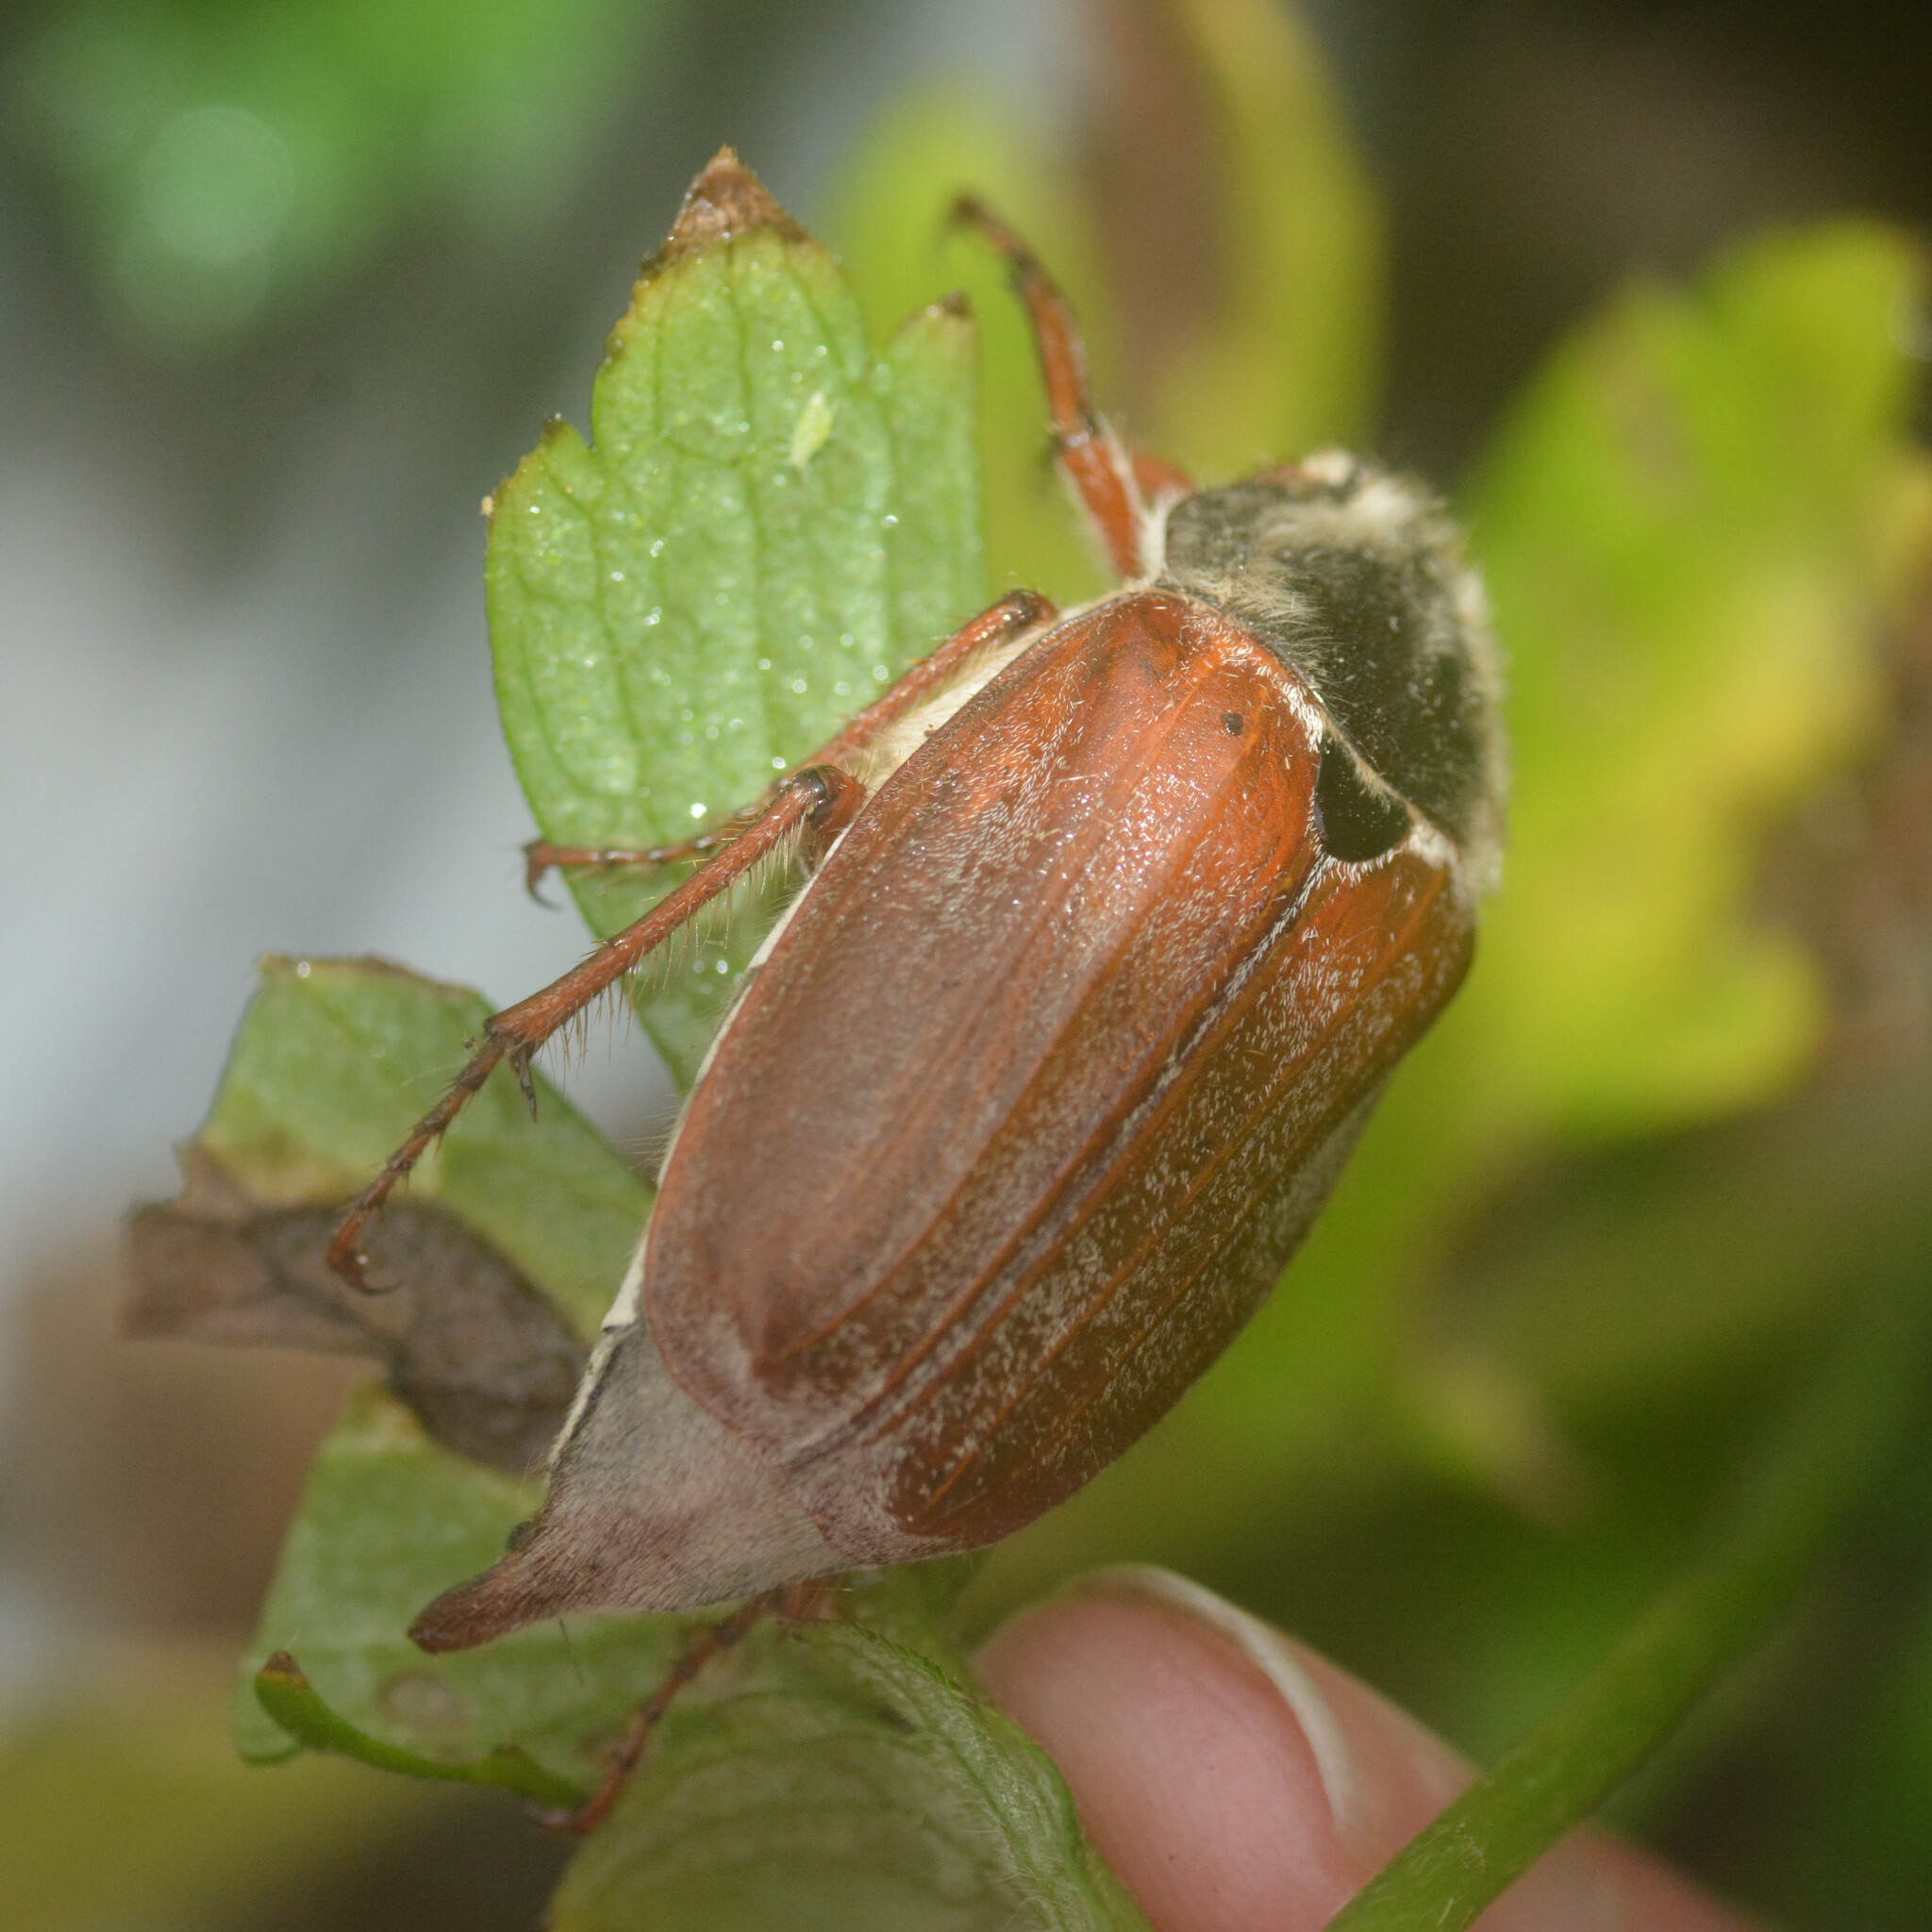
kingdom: Animalia
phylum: Arthropoda
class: Insecta
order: Coleoptera
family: Scarabaeidae
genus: Melolontha
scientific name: Melolontha melolontha
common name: Cockchafer maybeetle
